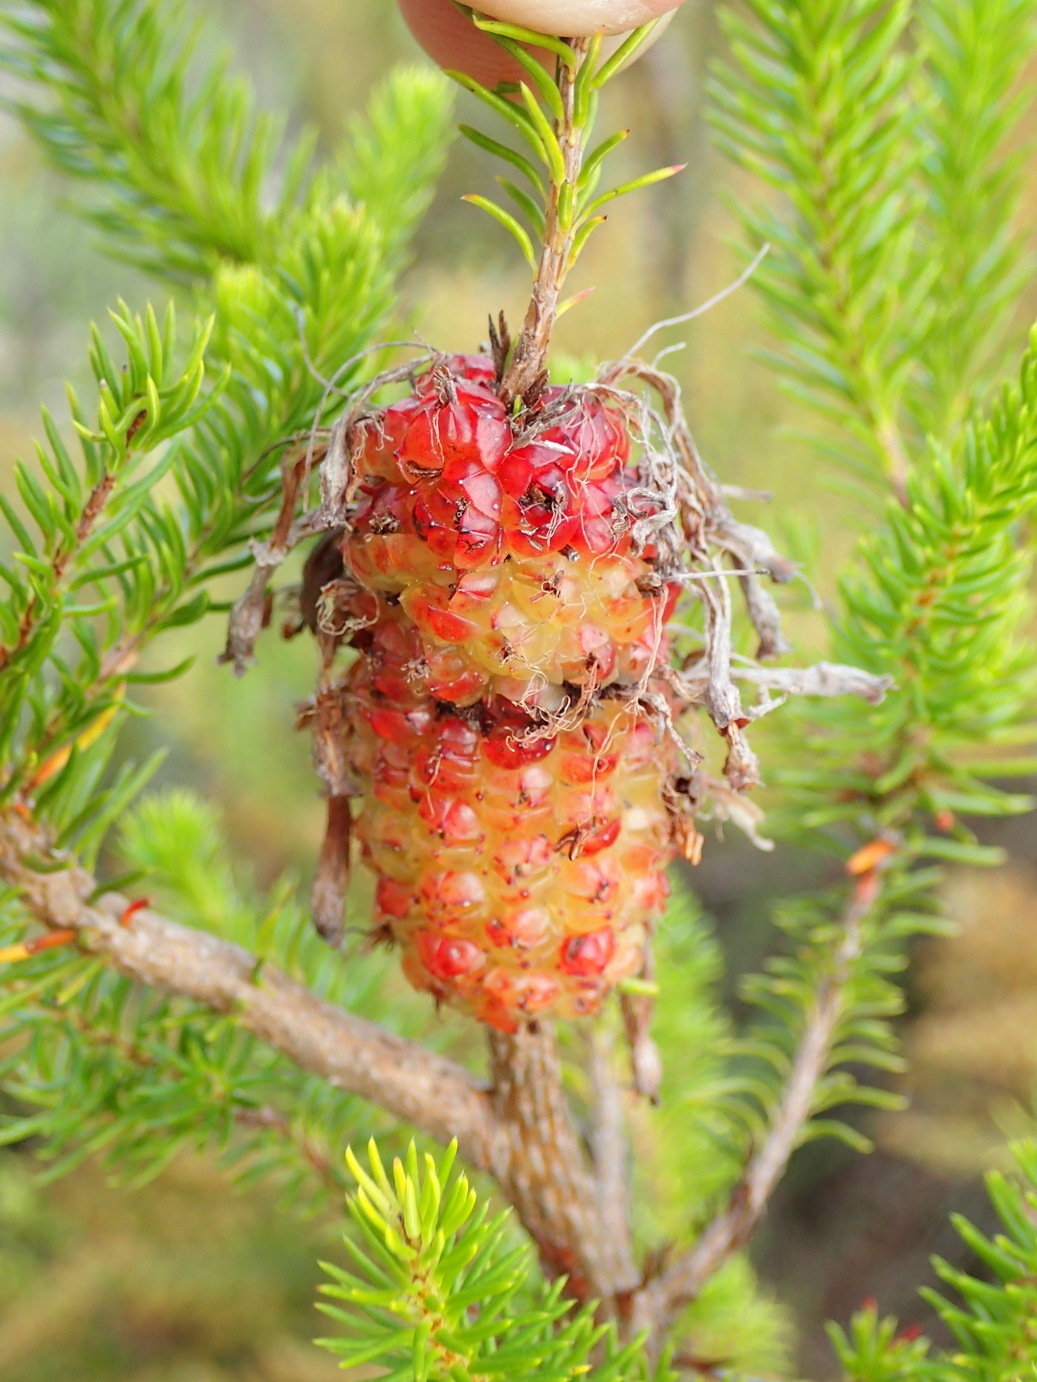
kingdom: Plantae
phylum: Tracheophyta
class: Magnoliopsida
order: Ericales
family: Ericaceae
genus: Erica
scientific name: Erica sessiliflora
